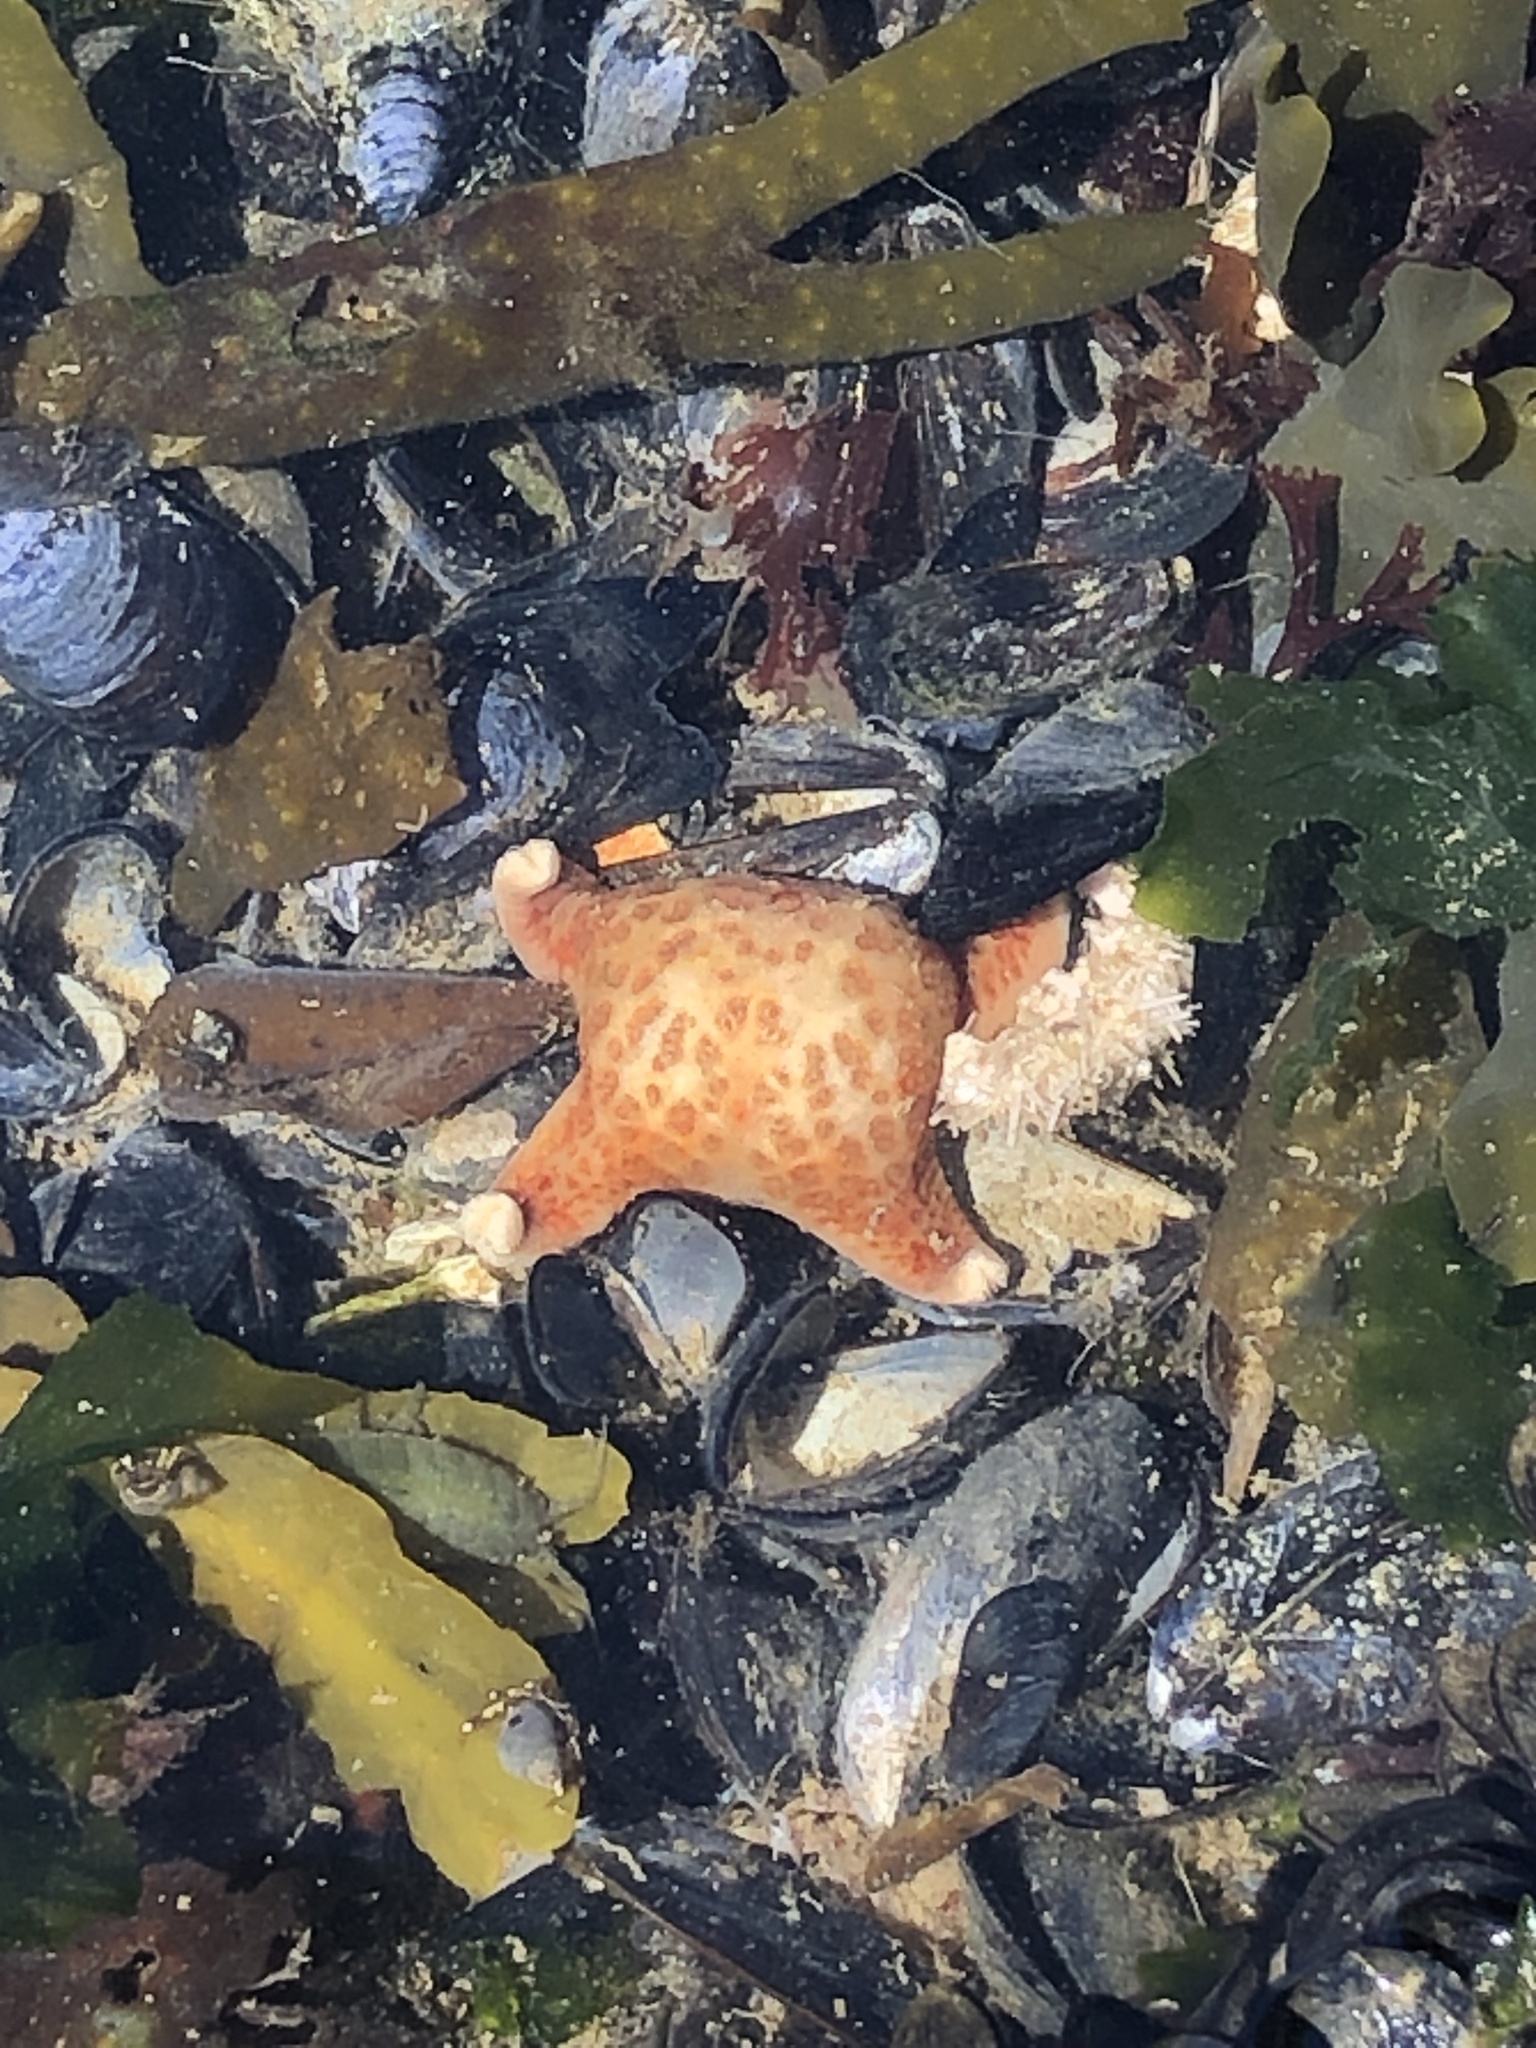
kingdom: Animalia
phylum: Echinodermata
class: Asteroidea
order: Valvatida
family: Asteropseidae
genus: Dermasterias
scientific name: Dermasterias imbricata
